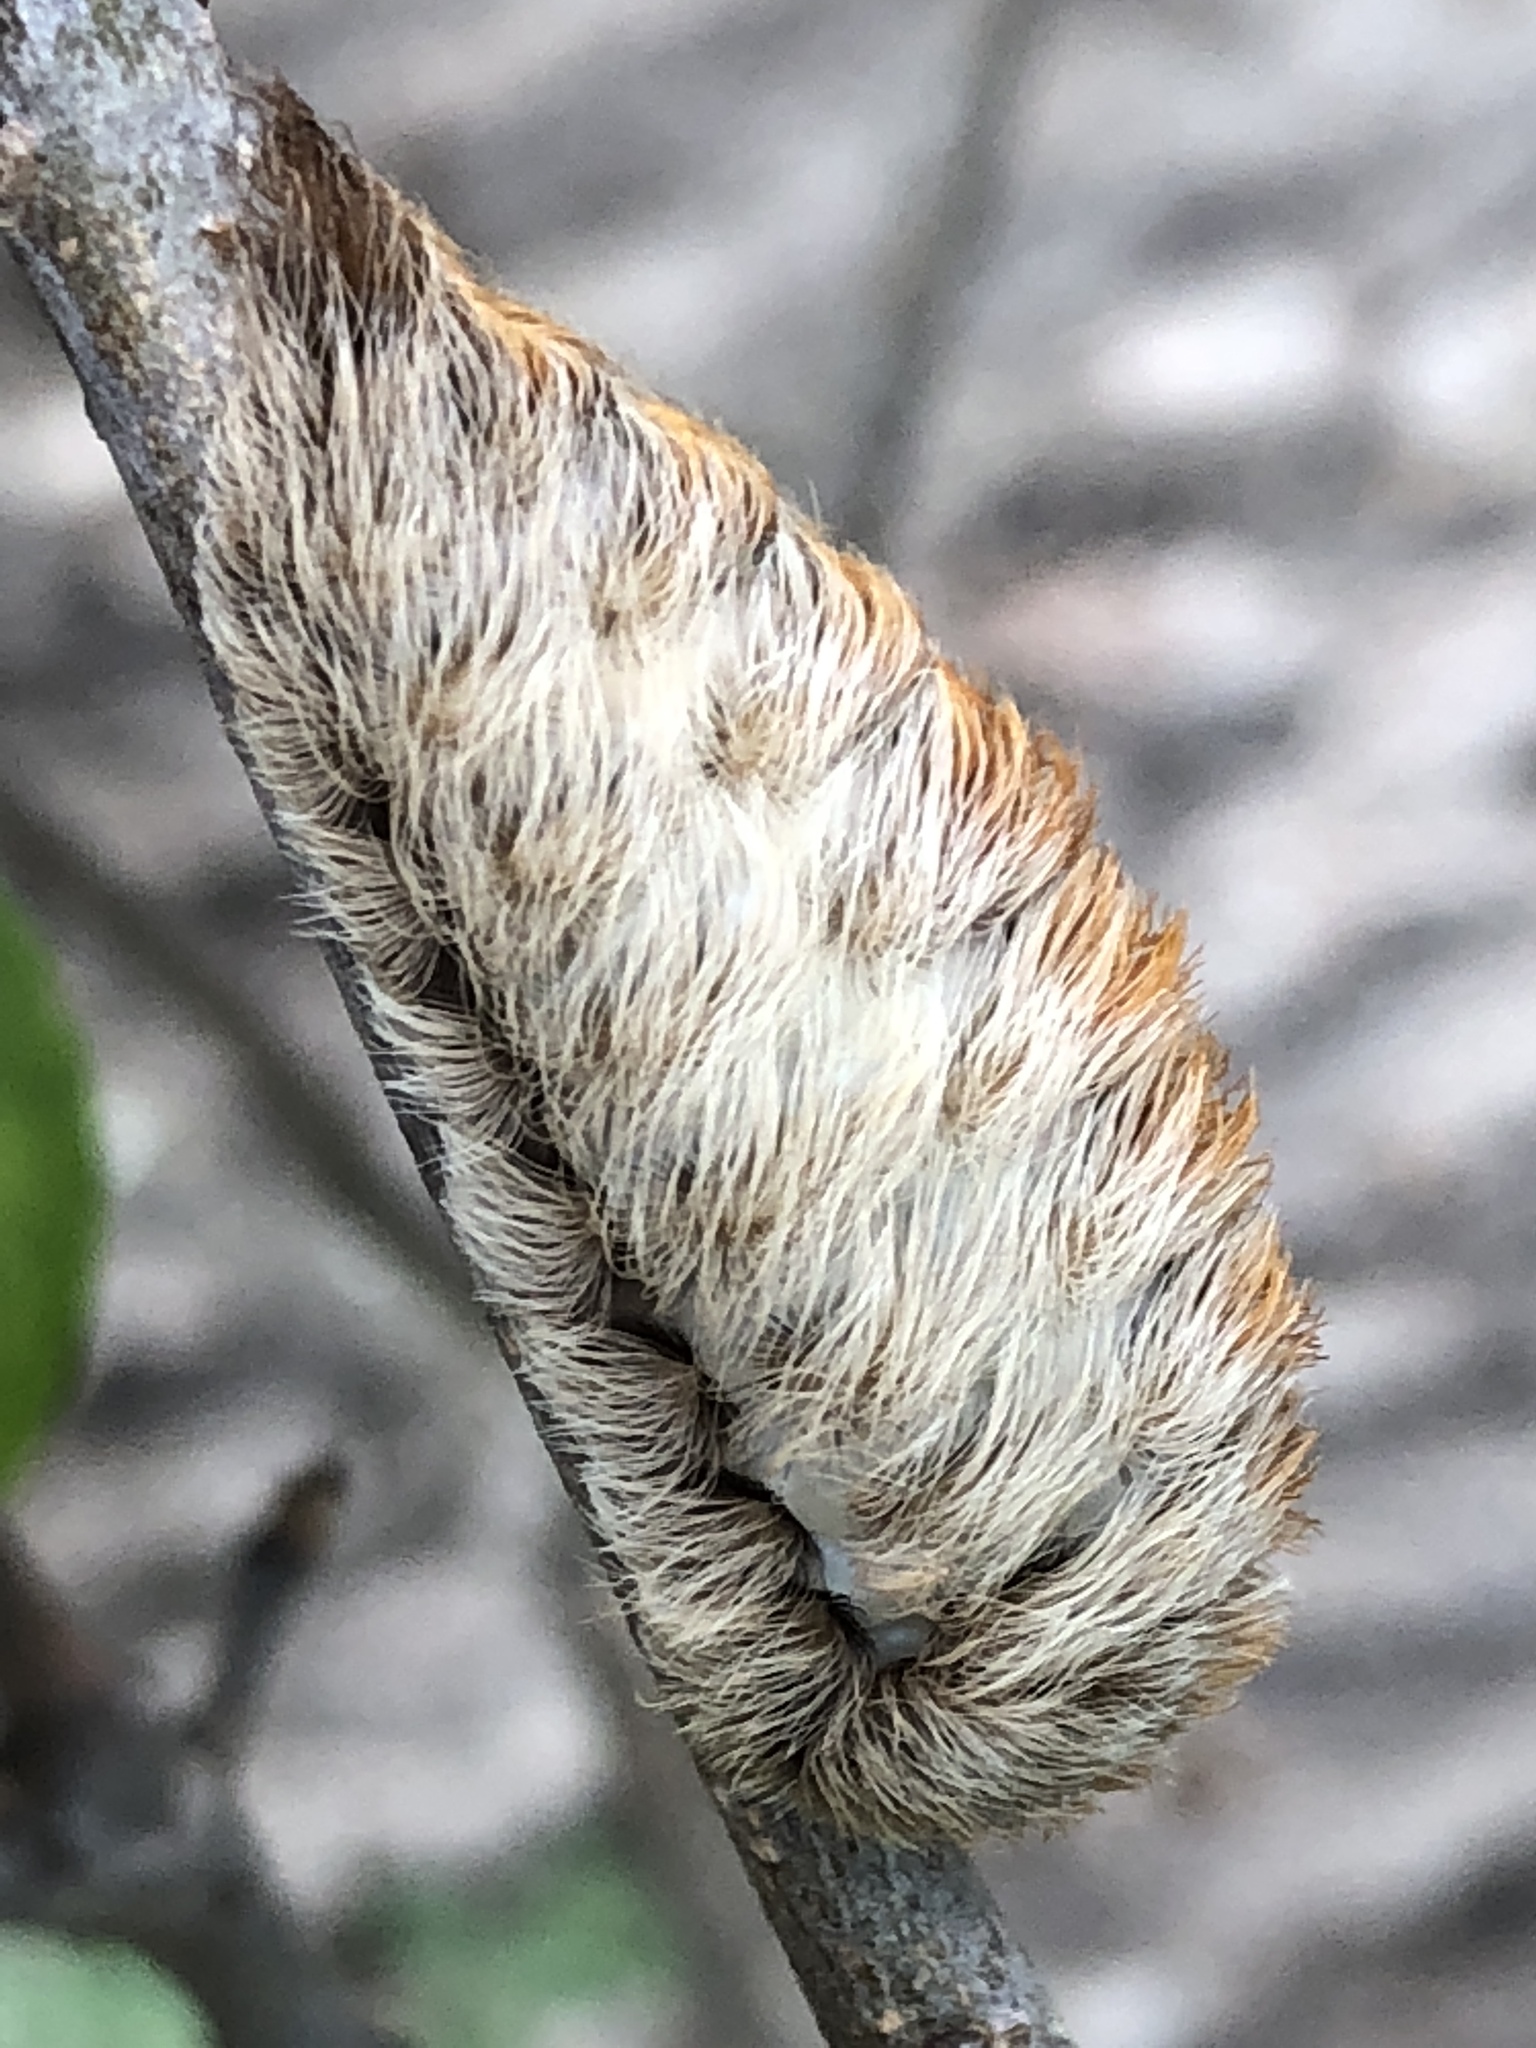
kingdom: Animalia
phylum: Arthropoda
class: Insecta
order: Lepidoptera
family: Megalopygidae
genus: Megalopyge
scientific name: Megalopyge opercularis
